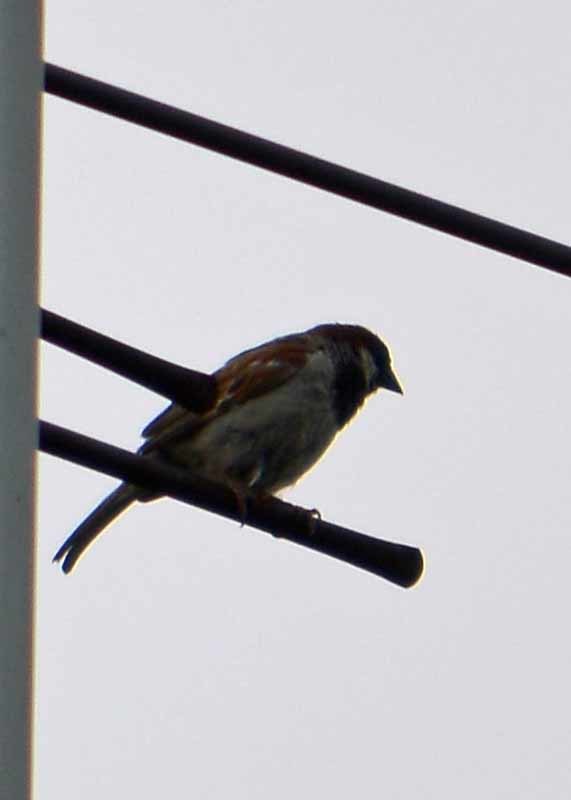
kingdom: Animalia
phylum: Chordata
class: Aves
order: Passeriformes
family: Passeridae
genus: Passer
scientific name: Passer domesticus
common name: House sparrow
